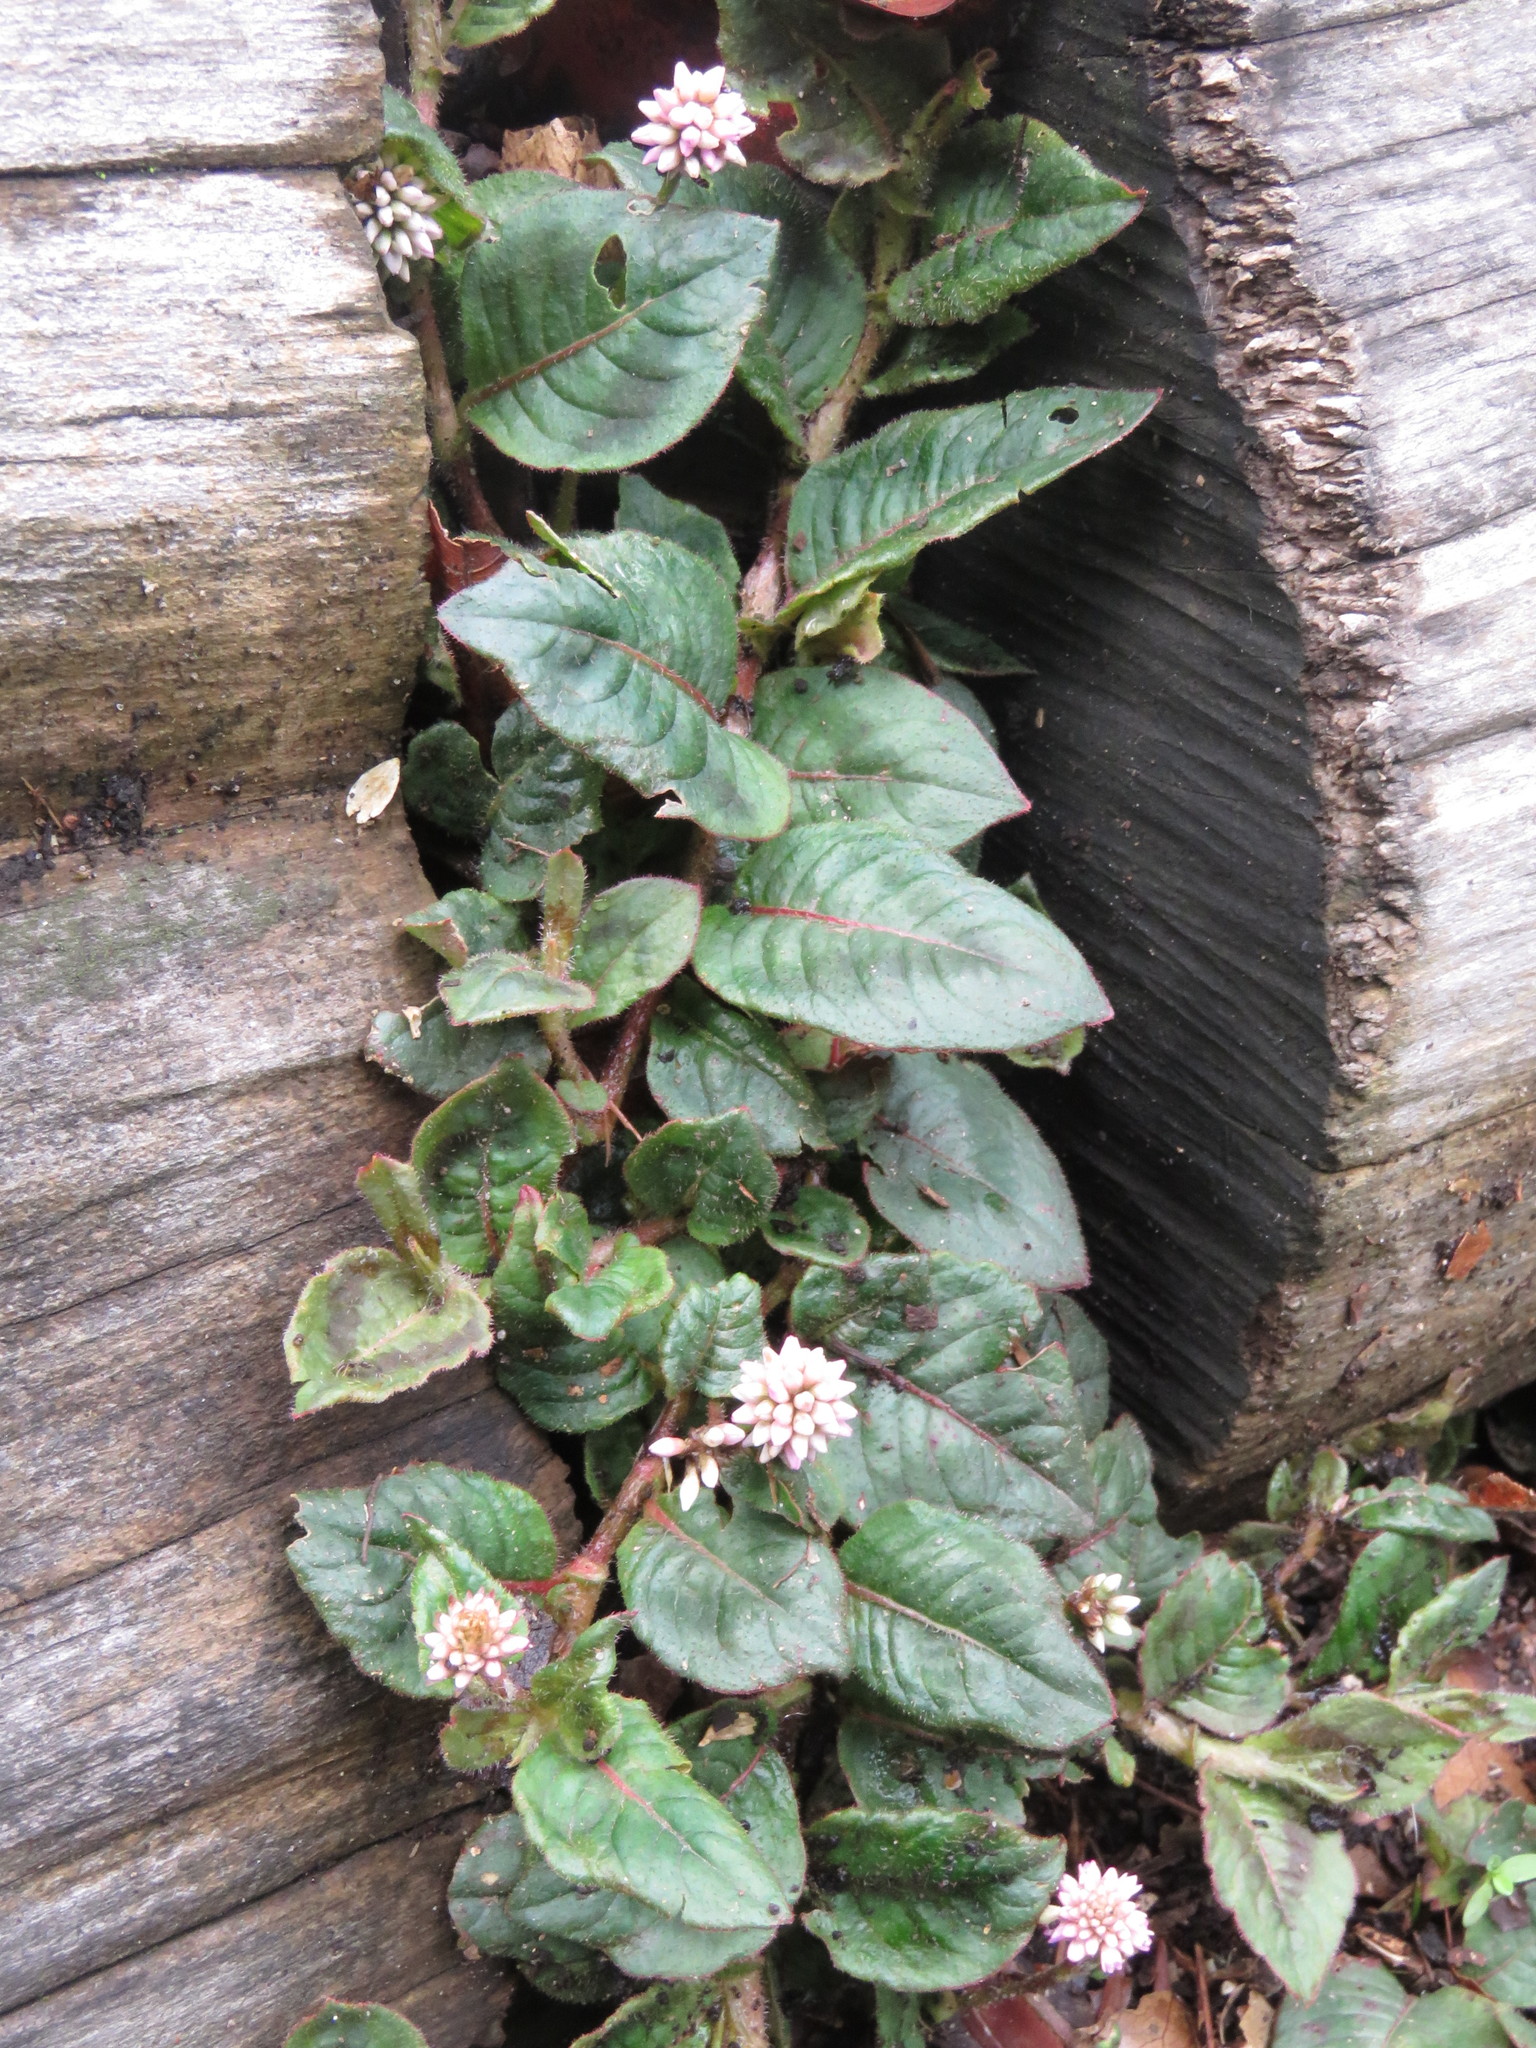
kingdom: Plantae
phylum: Tracheophyta
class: Magnoliopsida
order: Caryophyllales
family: Polygonaceae
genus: Persicaria
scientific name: Persicaria capitata
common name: Pinkhead smartweed
